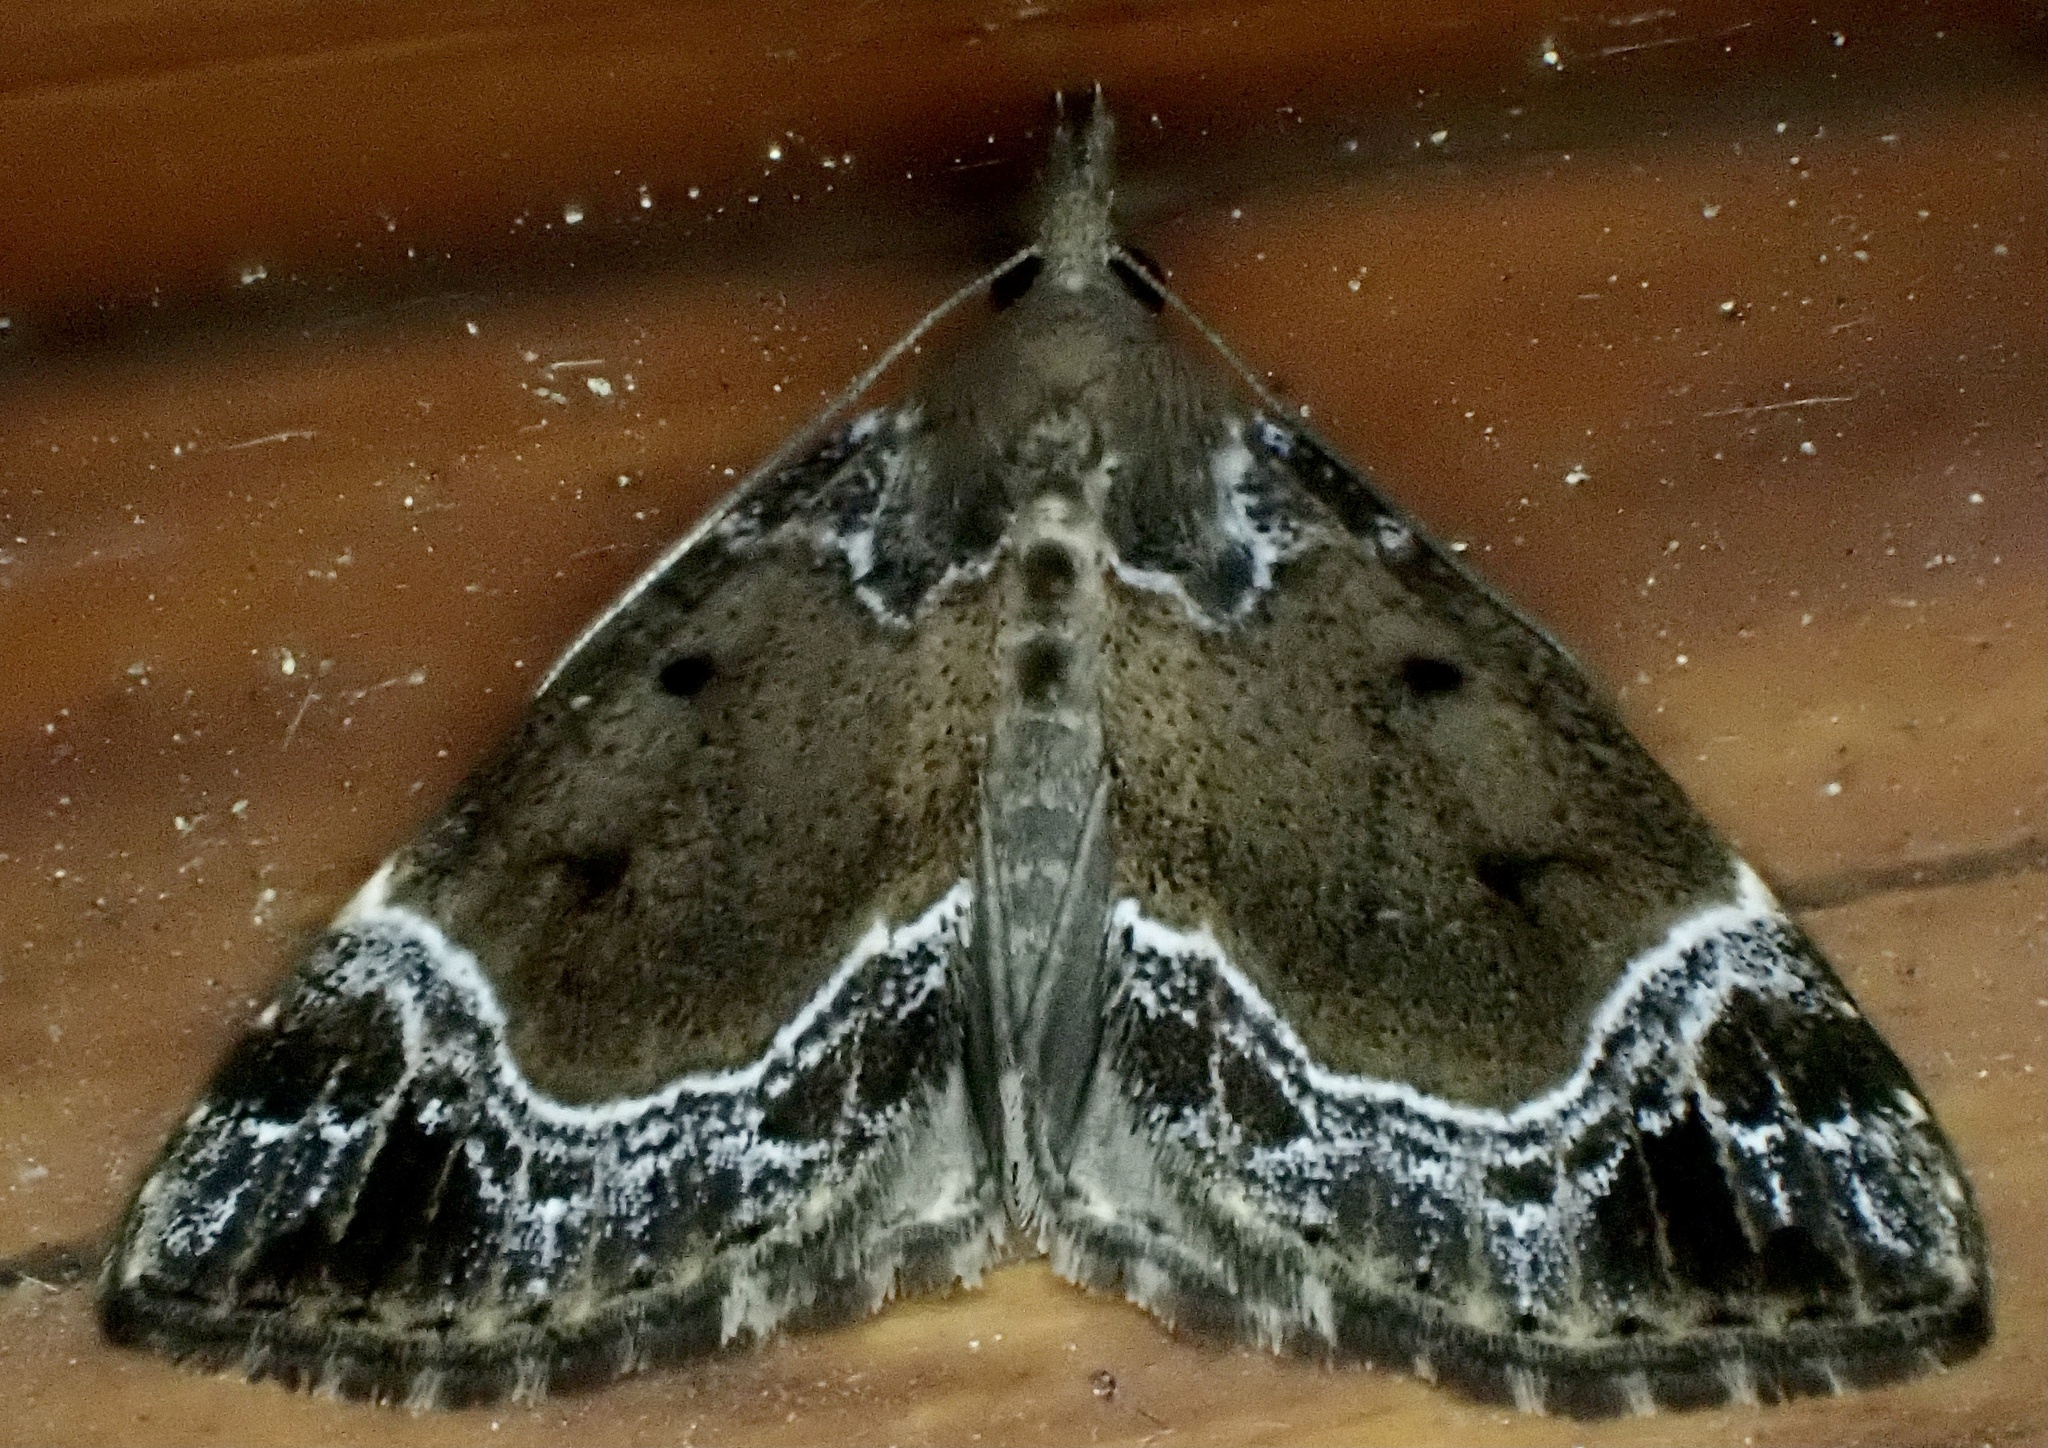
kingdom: Animalia
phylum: Arthropoda
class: Insecta
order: Lepidoptera
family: Erebidae
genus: Hypena
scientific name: Hypena abalienalis
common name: White-lined snout
